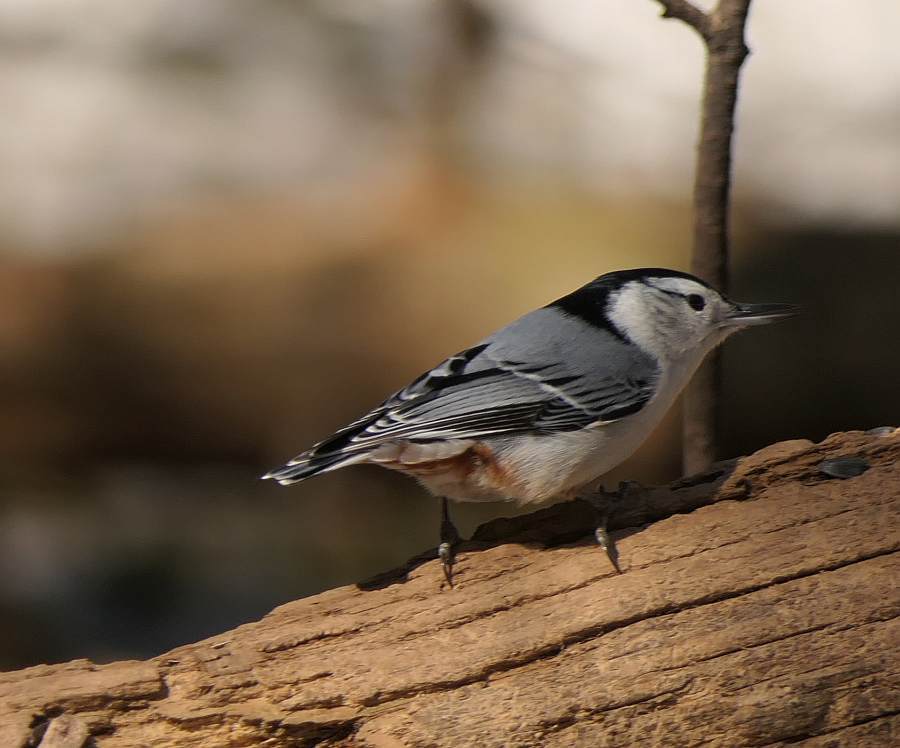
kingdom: Animalia
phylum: Chordata
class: Aves
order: Passeriformes
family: Sittidae
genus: Sitta
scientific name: Sitta carolinensis
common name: White-breasted nuthatch
